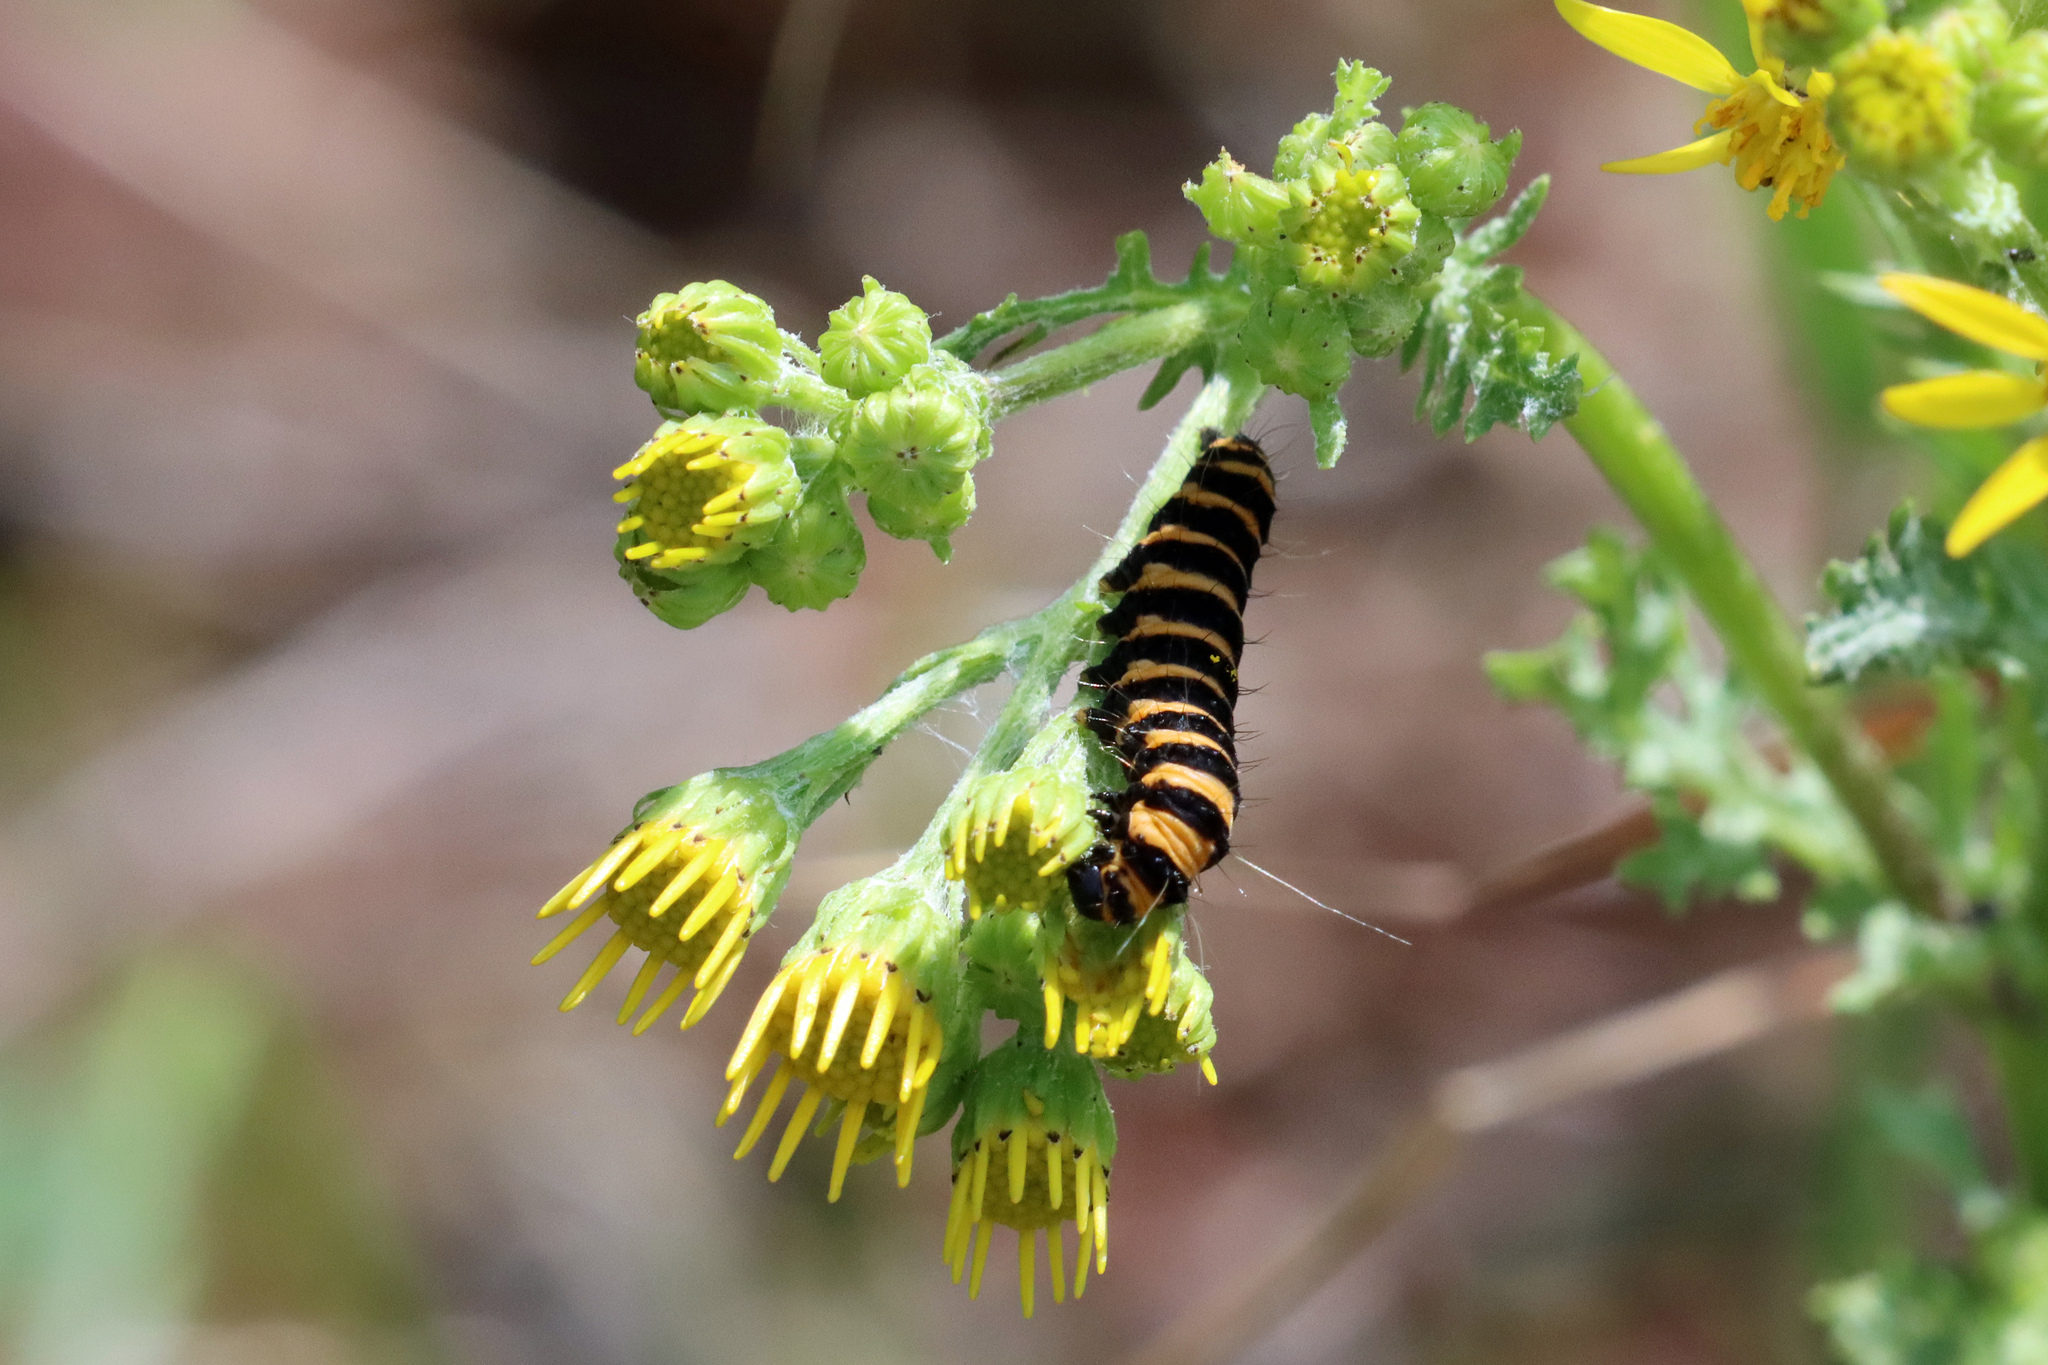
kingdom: Animalia
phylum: Arthropoda
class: Insecta
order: Lepidoptera
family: Erebidae
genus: Tyria
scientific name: Tyria jacobaeae
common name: Cinnabar
